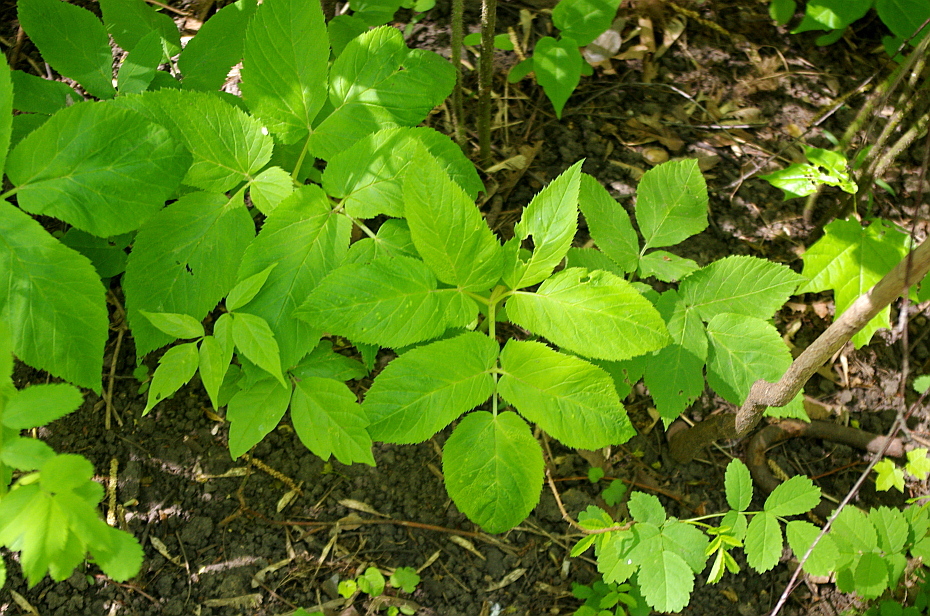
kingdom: Plantae
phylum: Tracheophyta
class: Magnoliopsida
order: Apiales
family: Apiaceae
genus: Aegopodium
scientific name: Aegopodium podagraria
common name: Ground-elder
